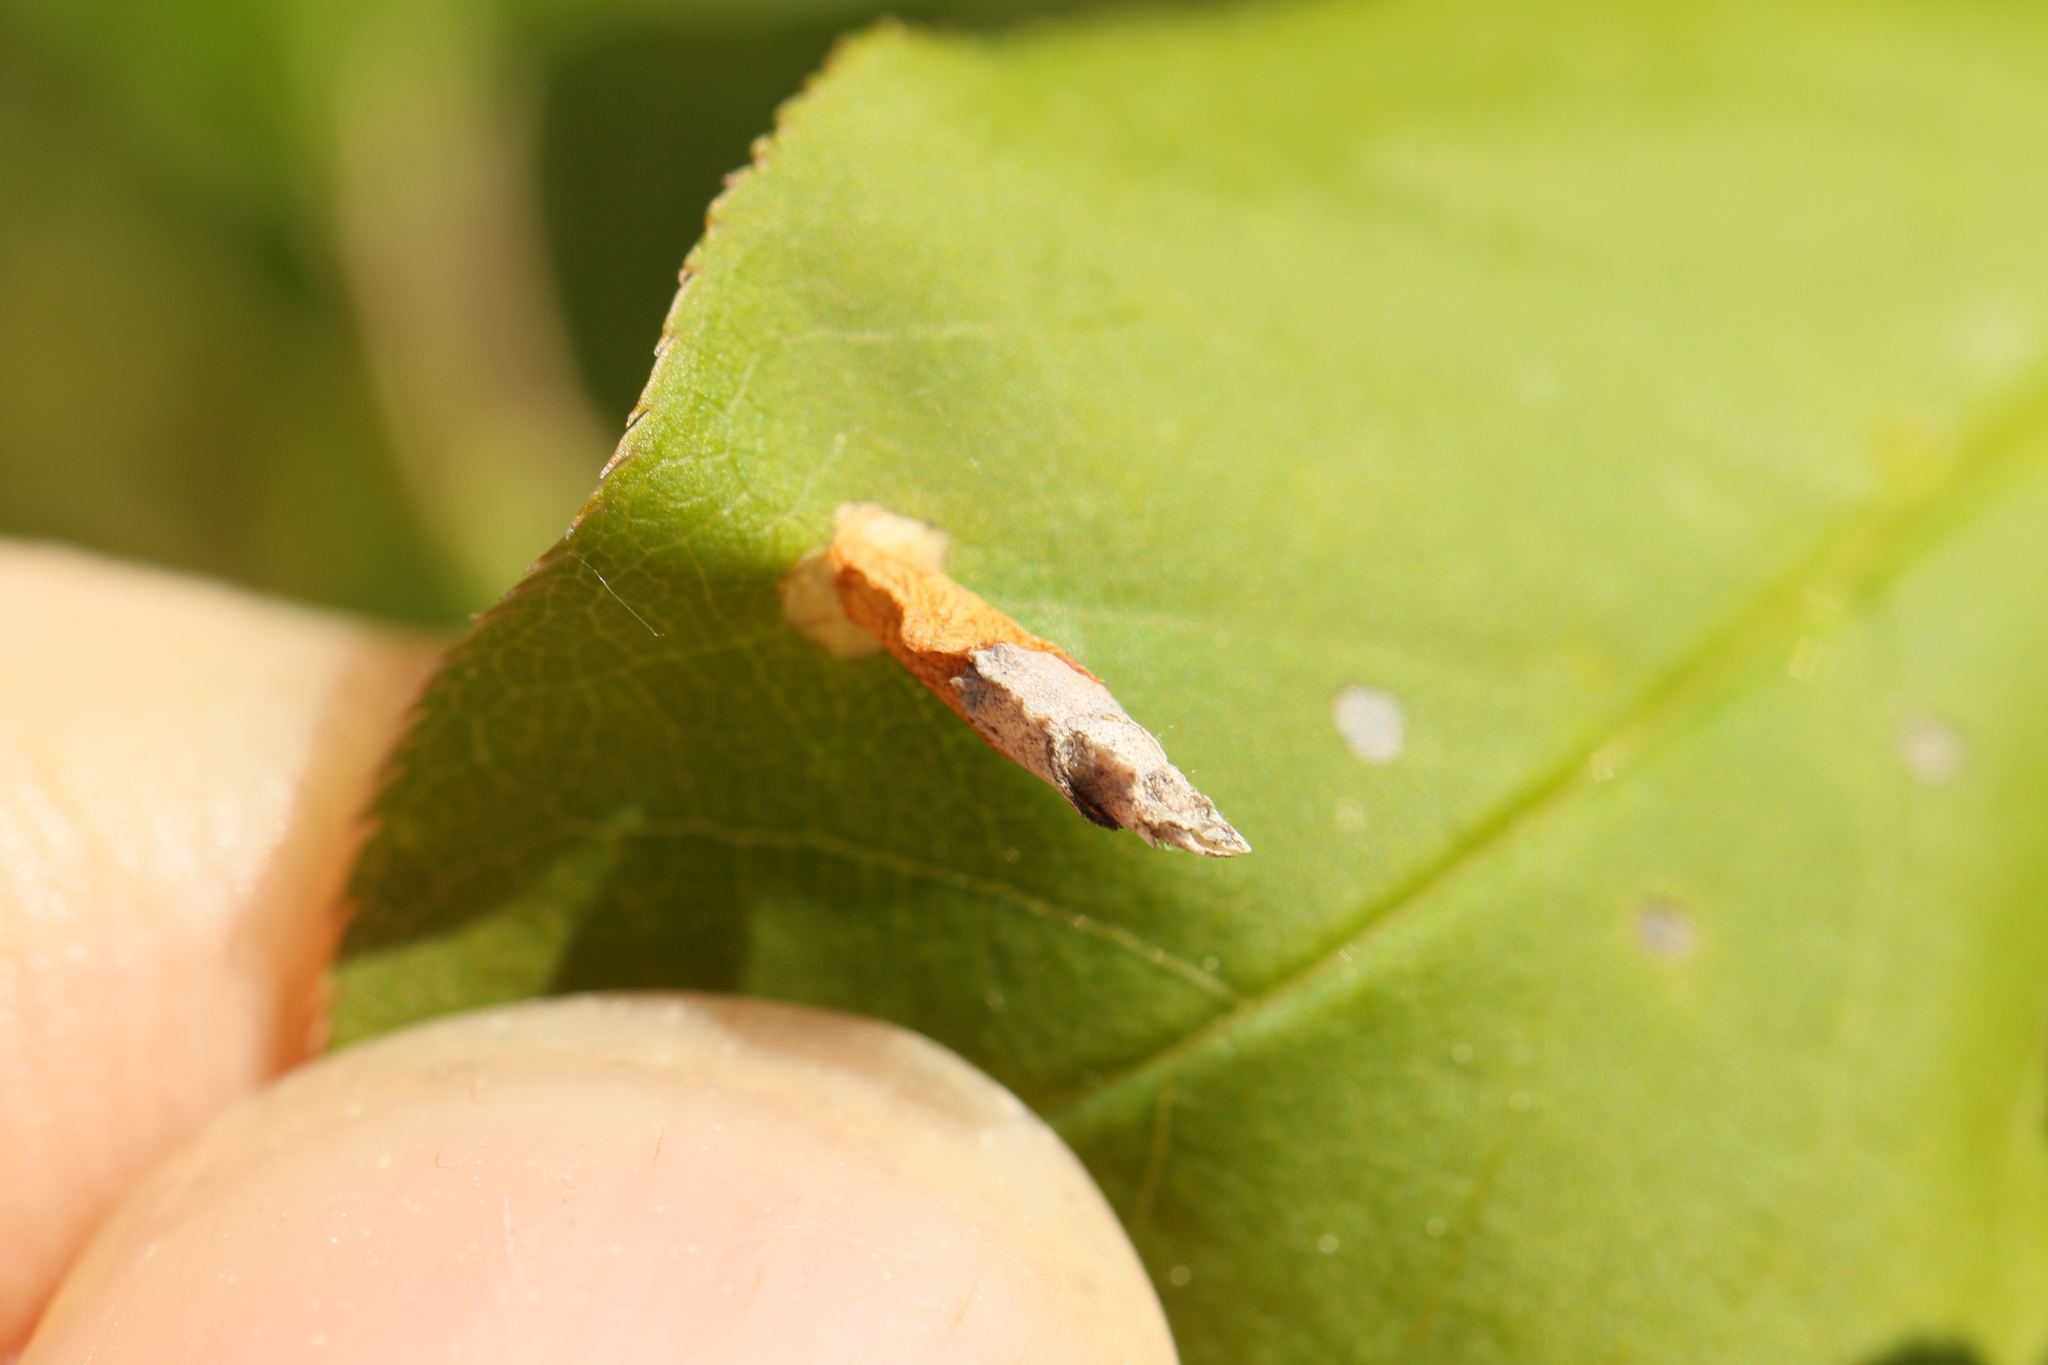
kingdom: Animalia
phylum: Arthropoda
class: Insecta
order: Lepidoptera
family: Coleophoridae
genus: Coleophora
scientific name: Coleophora pruniella
